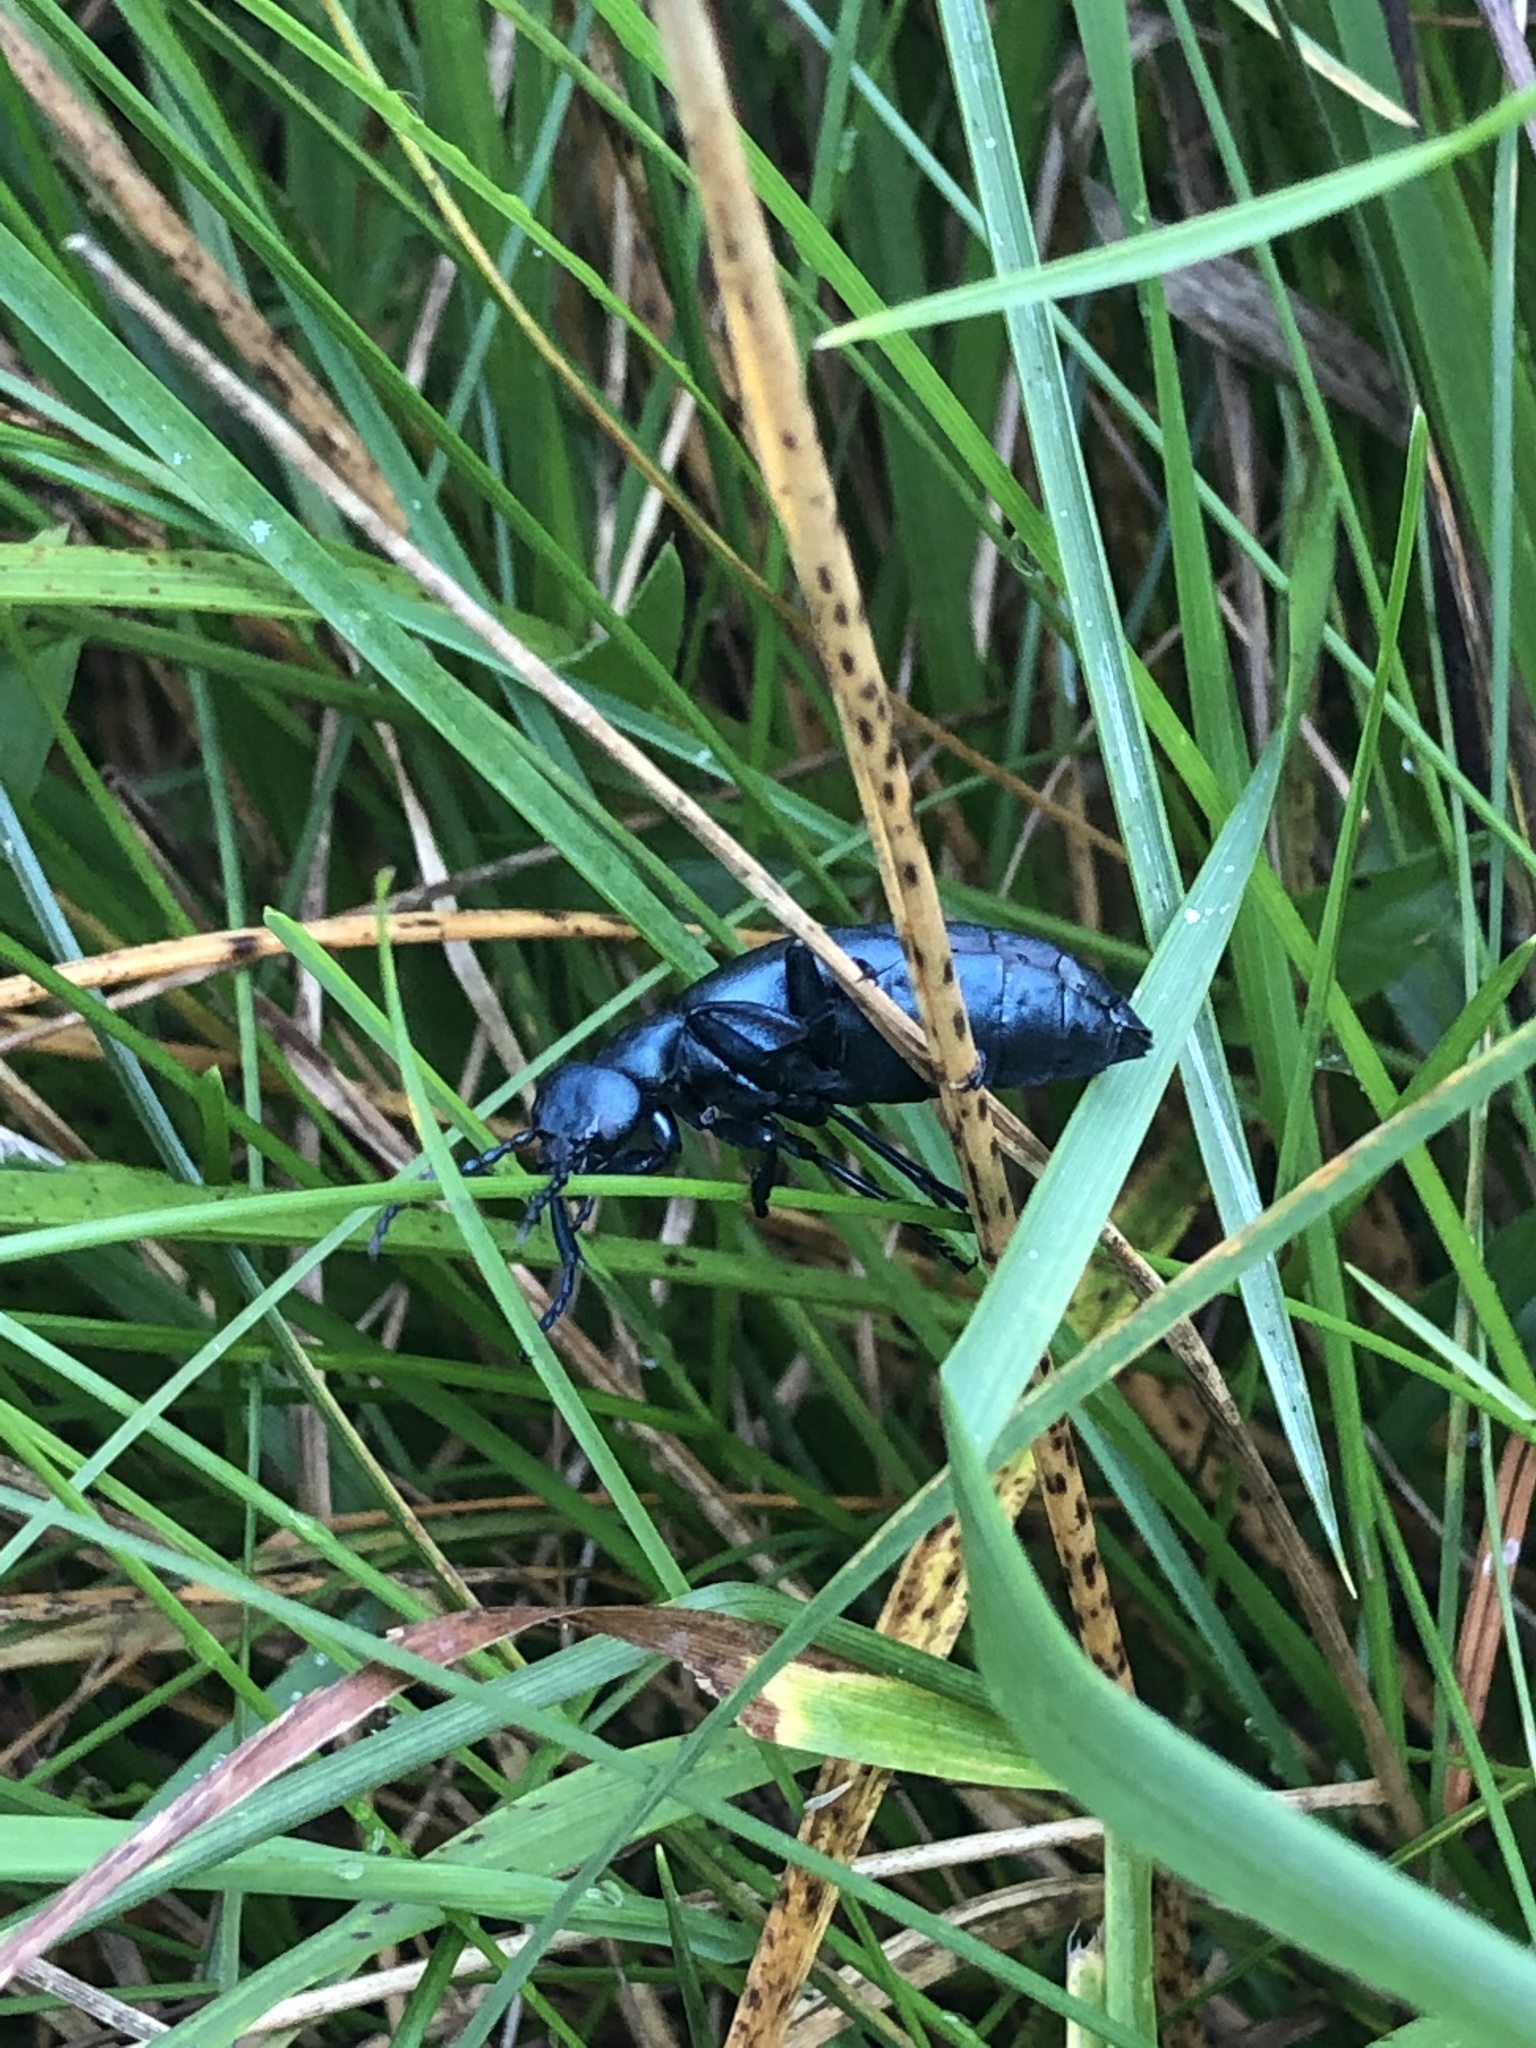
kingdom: Animalia
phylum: Arthropoda
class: Insecta
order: Coleoptera
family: Meloidae
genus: Meloe
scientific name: Meloe
